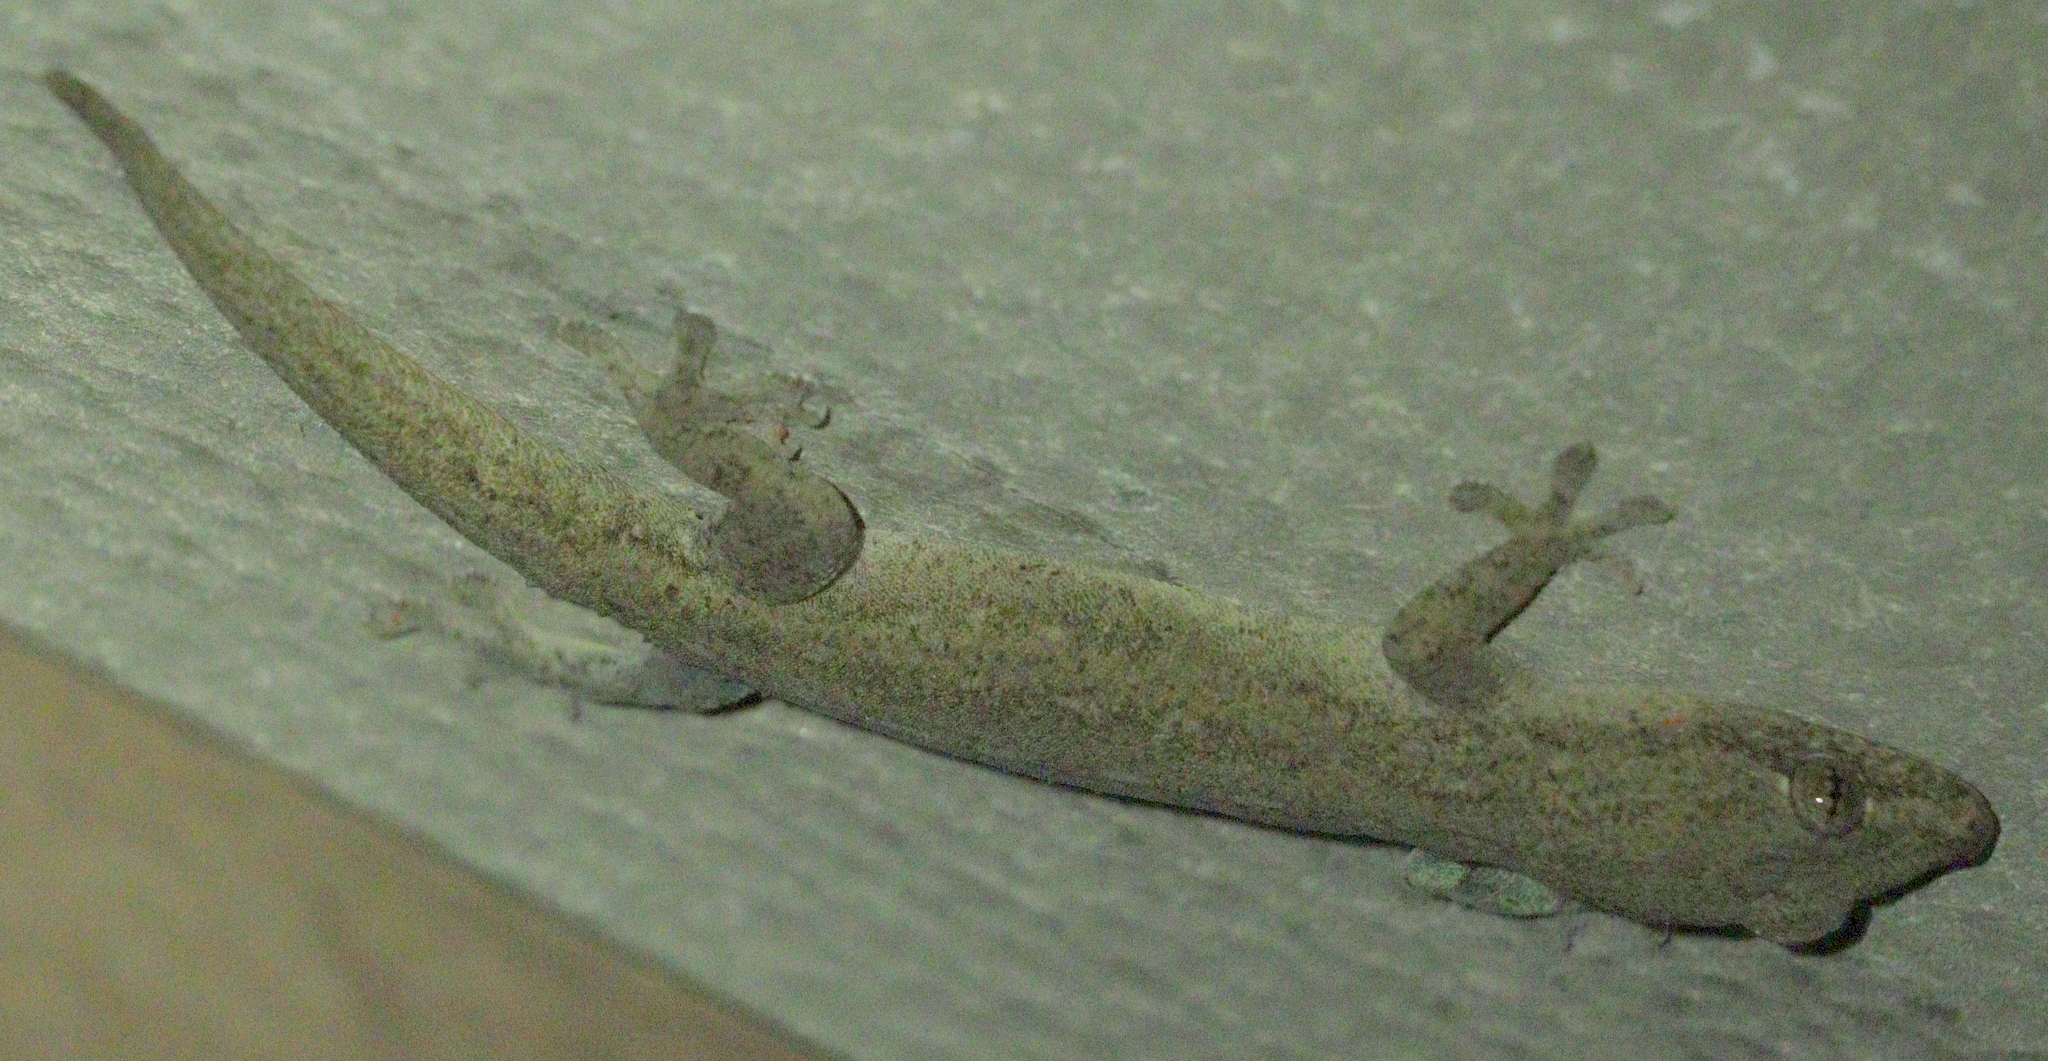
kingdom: Animalia
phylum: Chordata
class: Squamata
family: Gekkonidae
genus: Hemidactylus
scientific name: Hemidactylus frenatus
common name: Common house gecko
